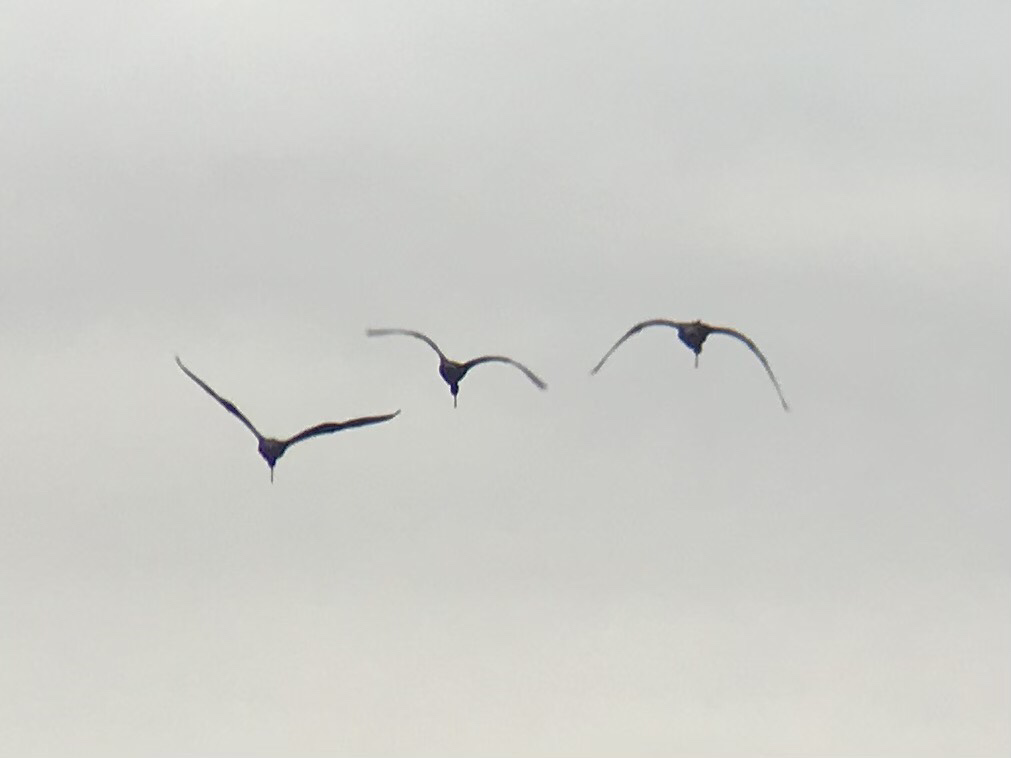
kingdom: Animalia
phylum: Chordata
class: Aves
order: Pelecaniformes
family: Threskiornithidae
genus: Plegadis
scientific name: Plegadis falcinellus
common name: Glossy ibis
